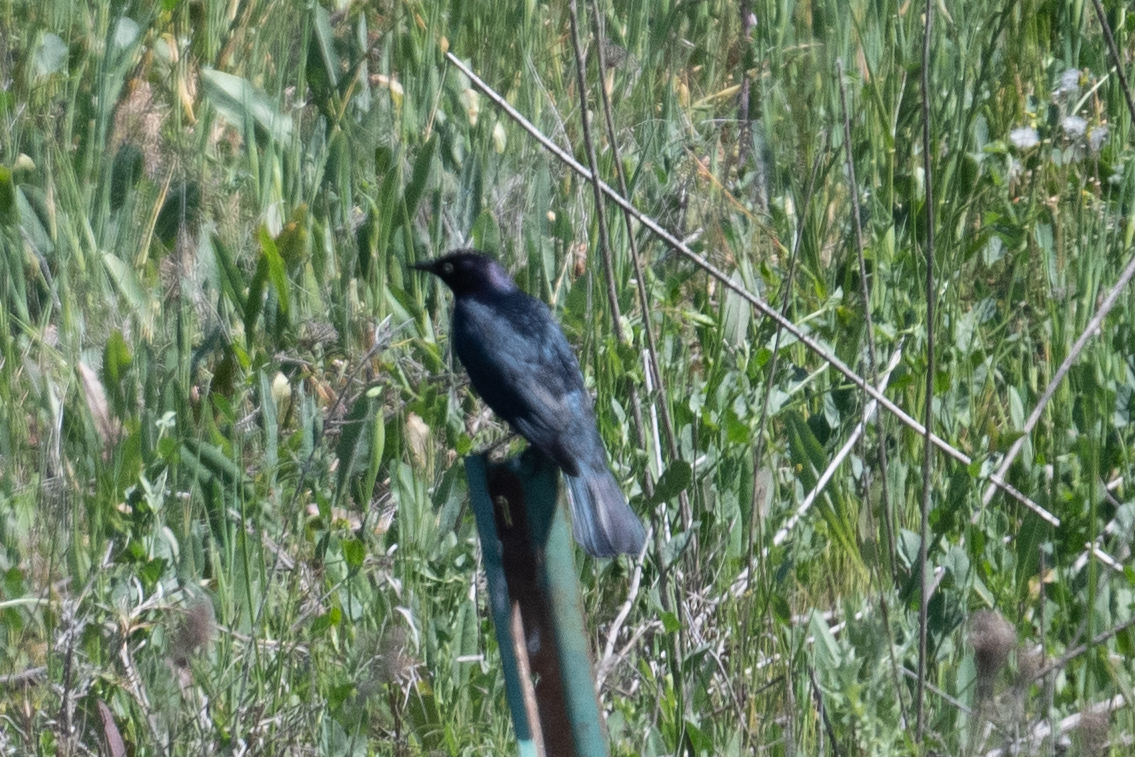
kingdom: Animalia
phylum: Chordata
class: Aves
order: Passeriformes
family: Icteridae
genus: Euphagus
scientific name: Euphagus cyanocephalus
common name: Brewer's blackbird
